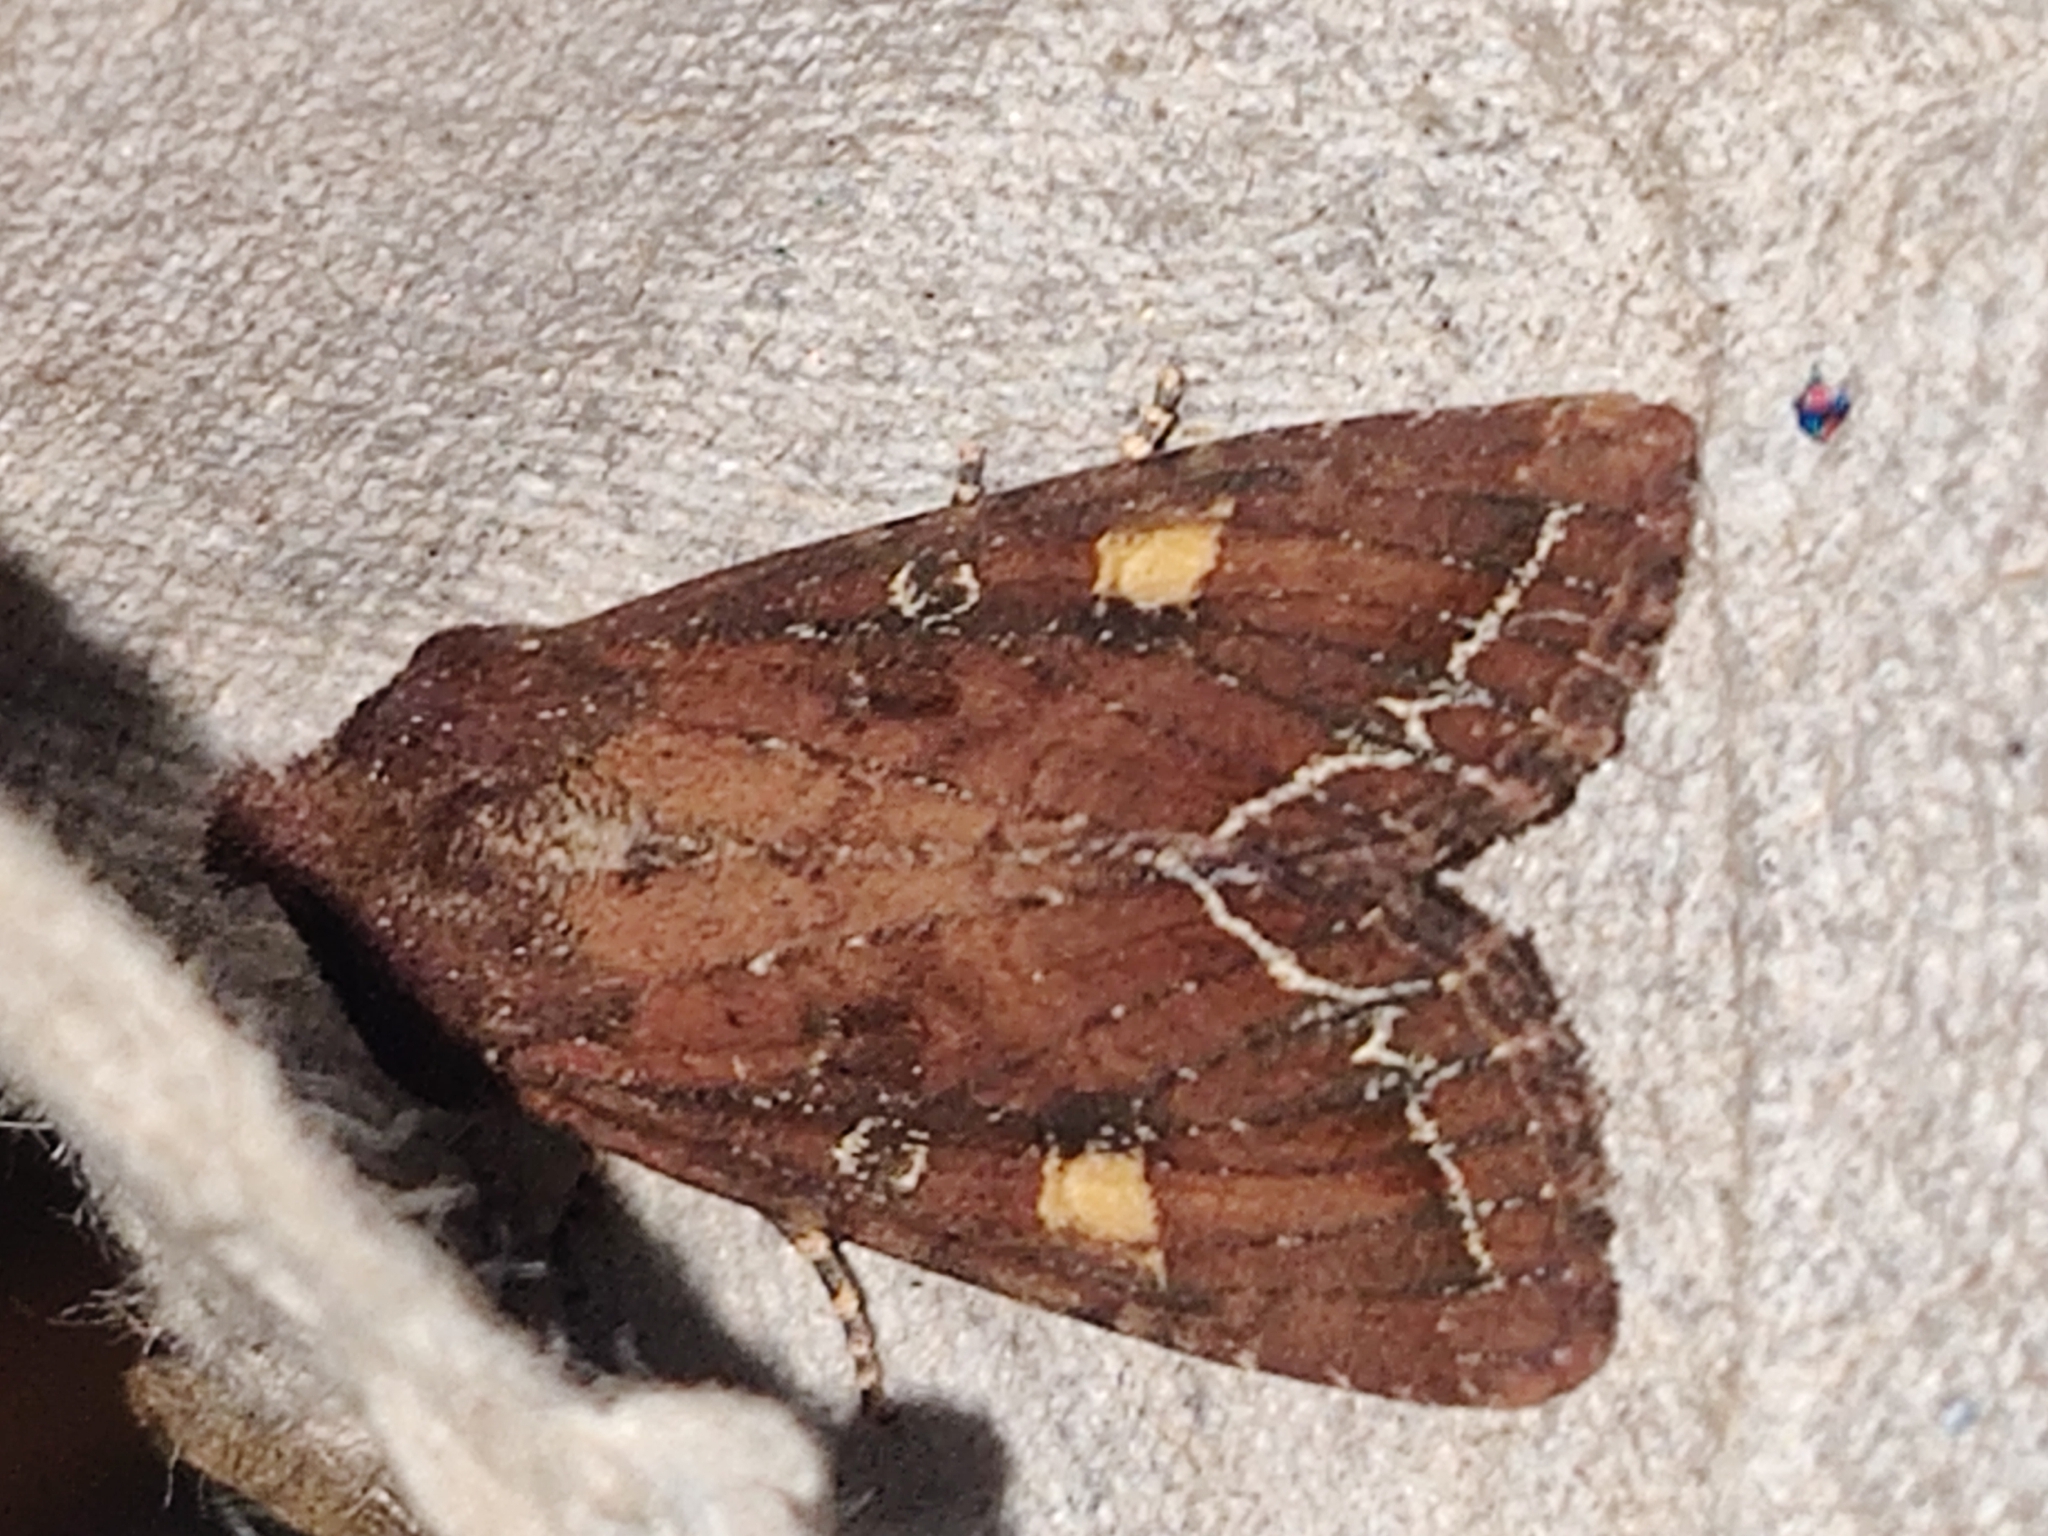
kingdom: Animalia
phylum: Arthropoda
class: Insecta
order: Lepidoptera
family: Noctuidae
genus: Lacanobia
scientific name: Lacanobia oleracea
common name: Bright-line brown-eye
